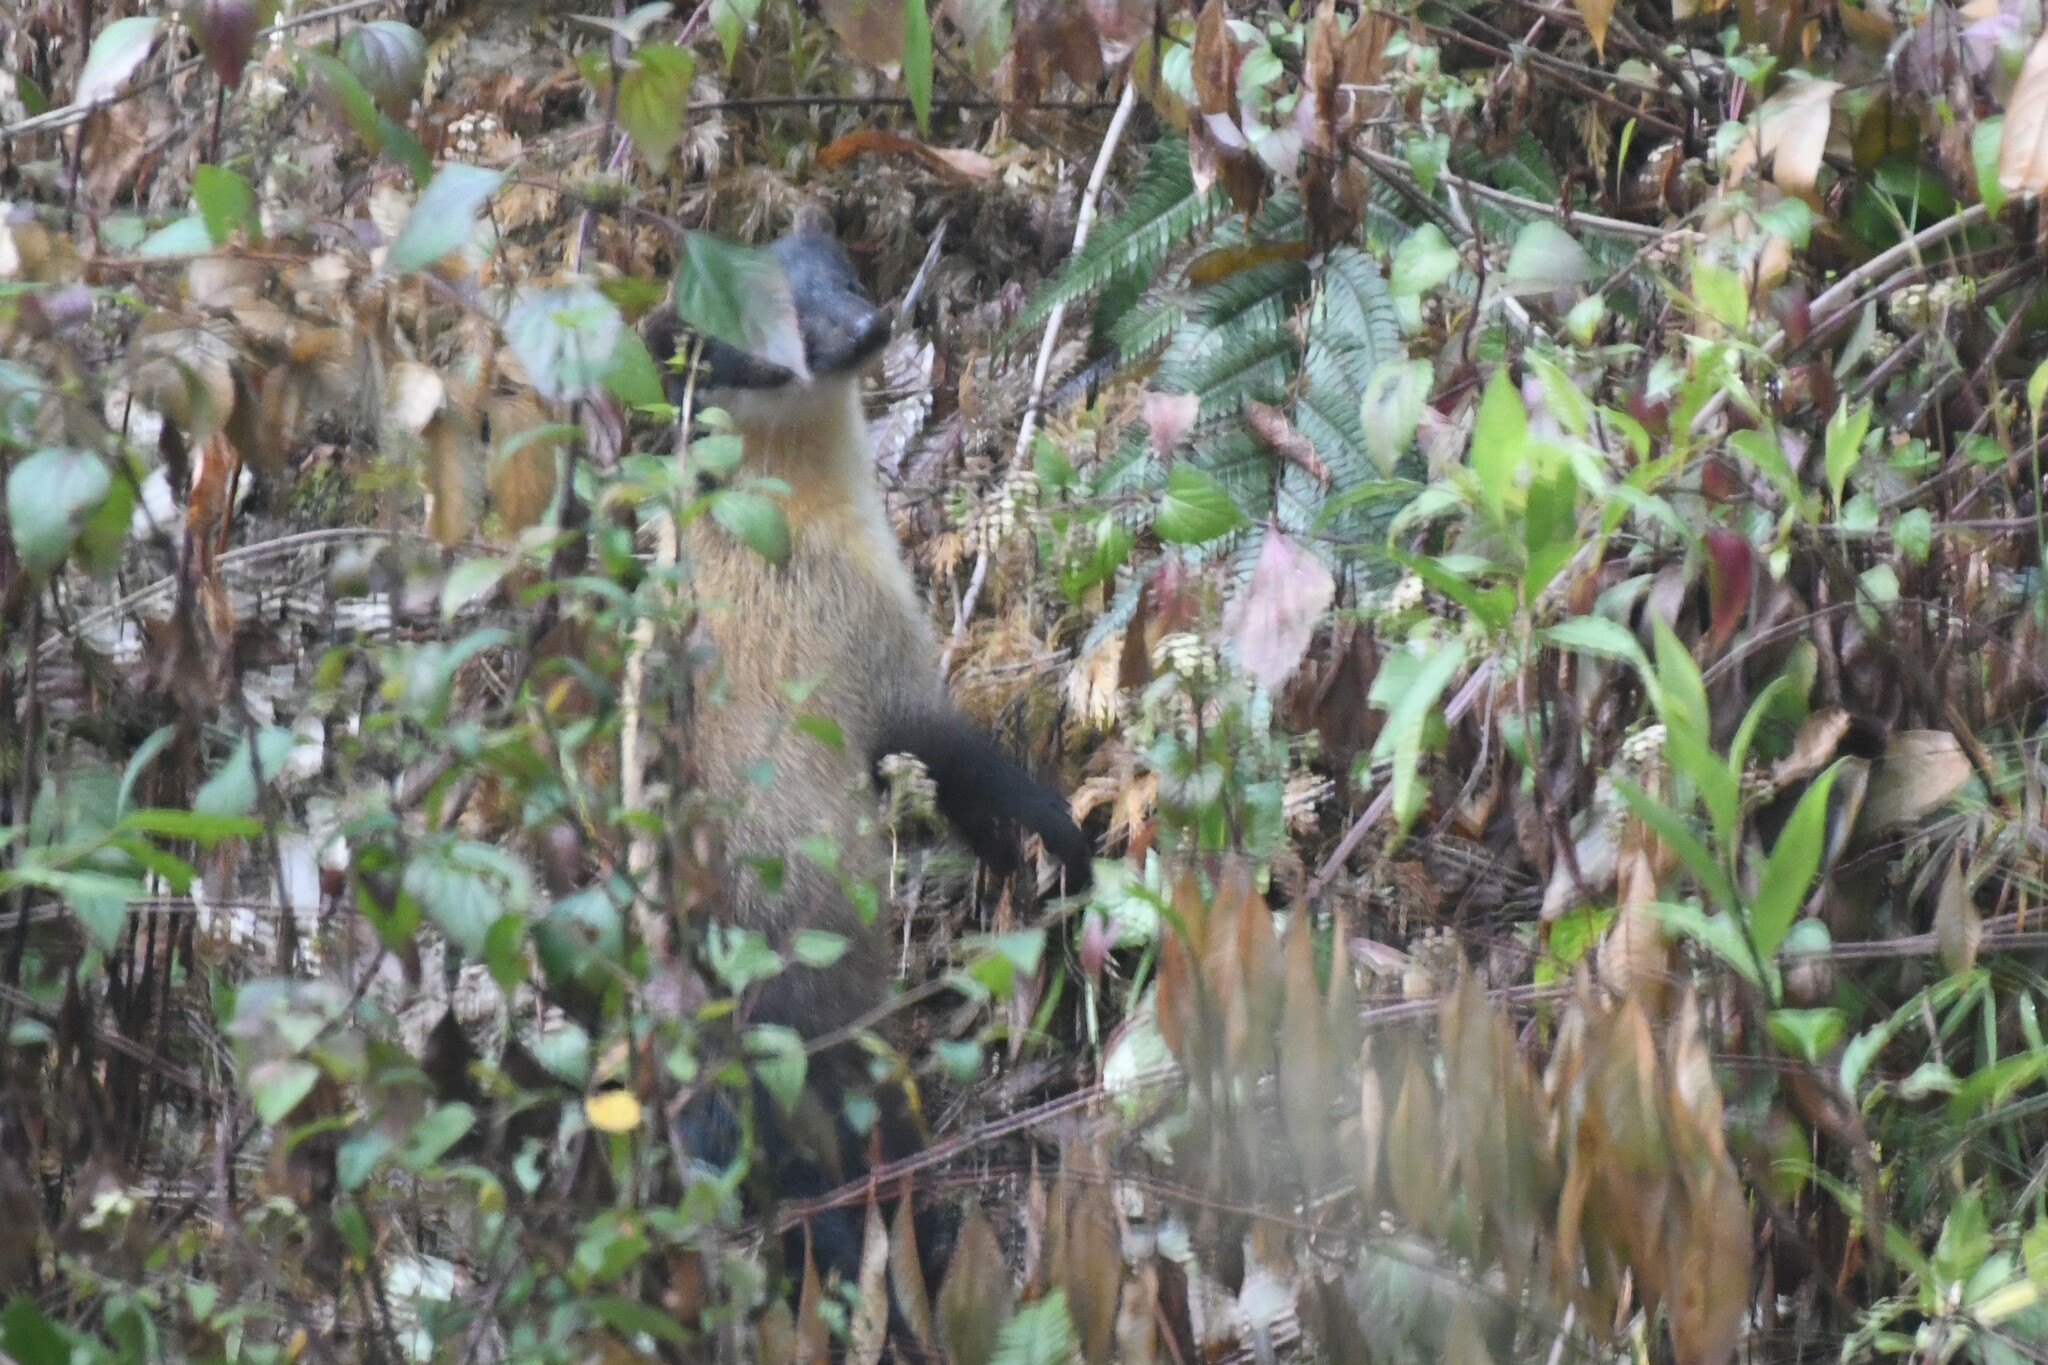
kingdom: Animalia
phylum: Chordata
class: Mammalia
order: Carnivora
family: Mustelidae
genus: Martes
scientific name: Martes flavigula
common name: Yellow-throated marten
